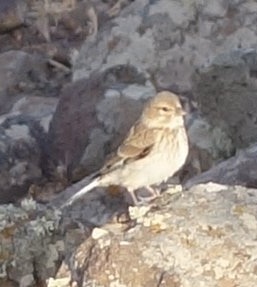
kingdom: Animalia
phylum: Chordata
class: Aves
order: Passeriformes
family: Fringillidae
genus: Linaria
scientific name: Linaria cannabina
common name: Common linnet
